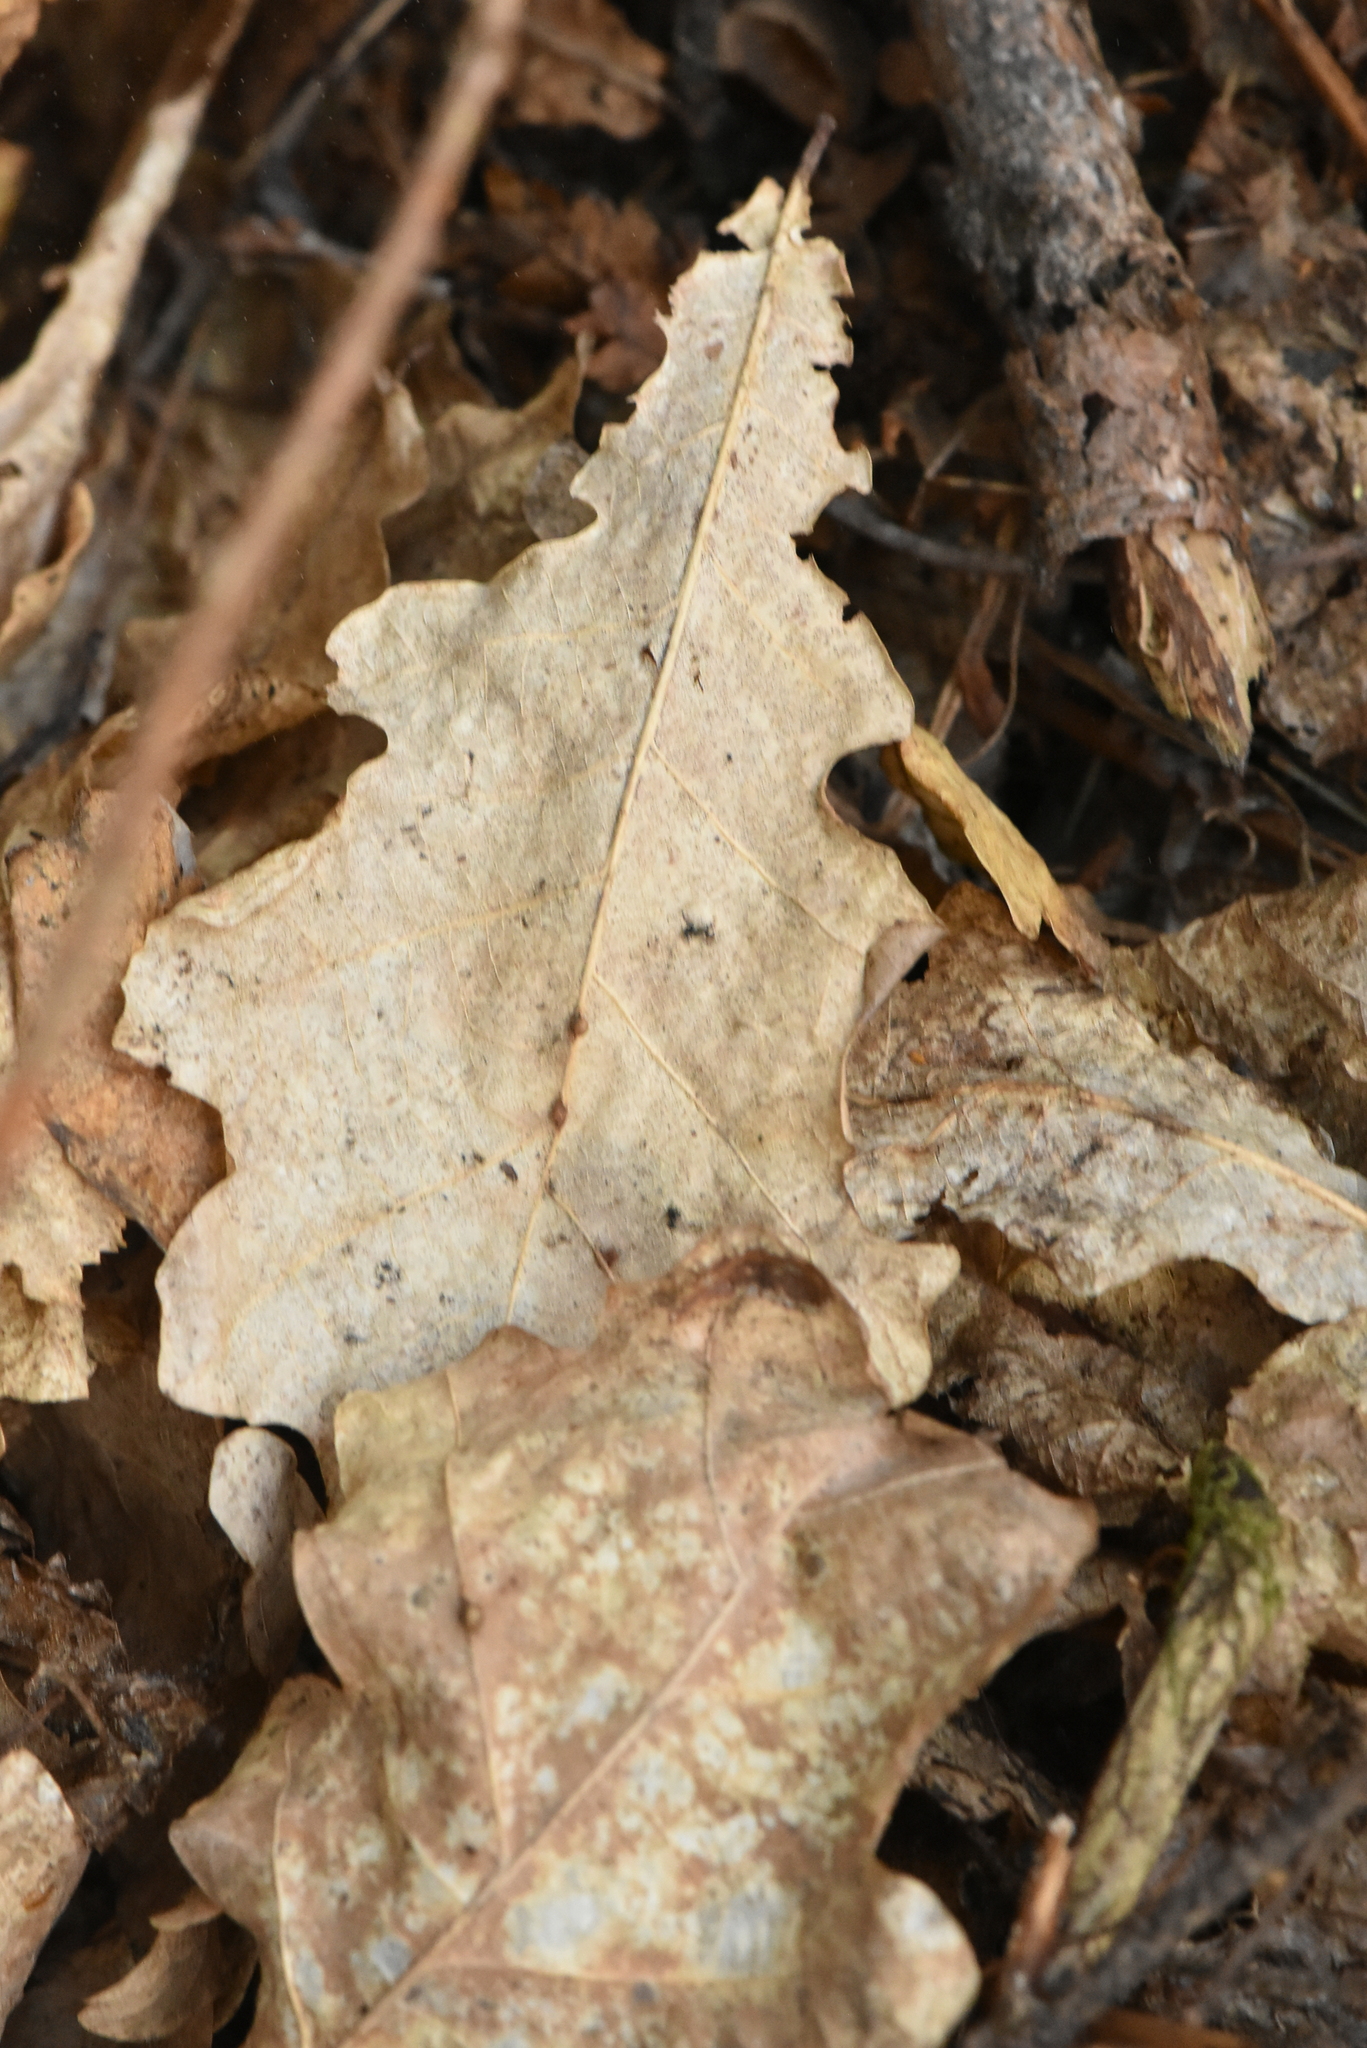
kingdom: Plantae
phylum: Tracheophyta
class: Magnoliopsida
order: Fagales
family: Fagaceae
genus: Quercus
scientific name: Quercus robur
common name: Pedunculate oak
